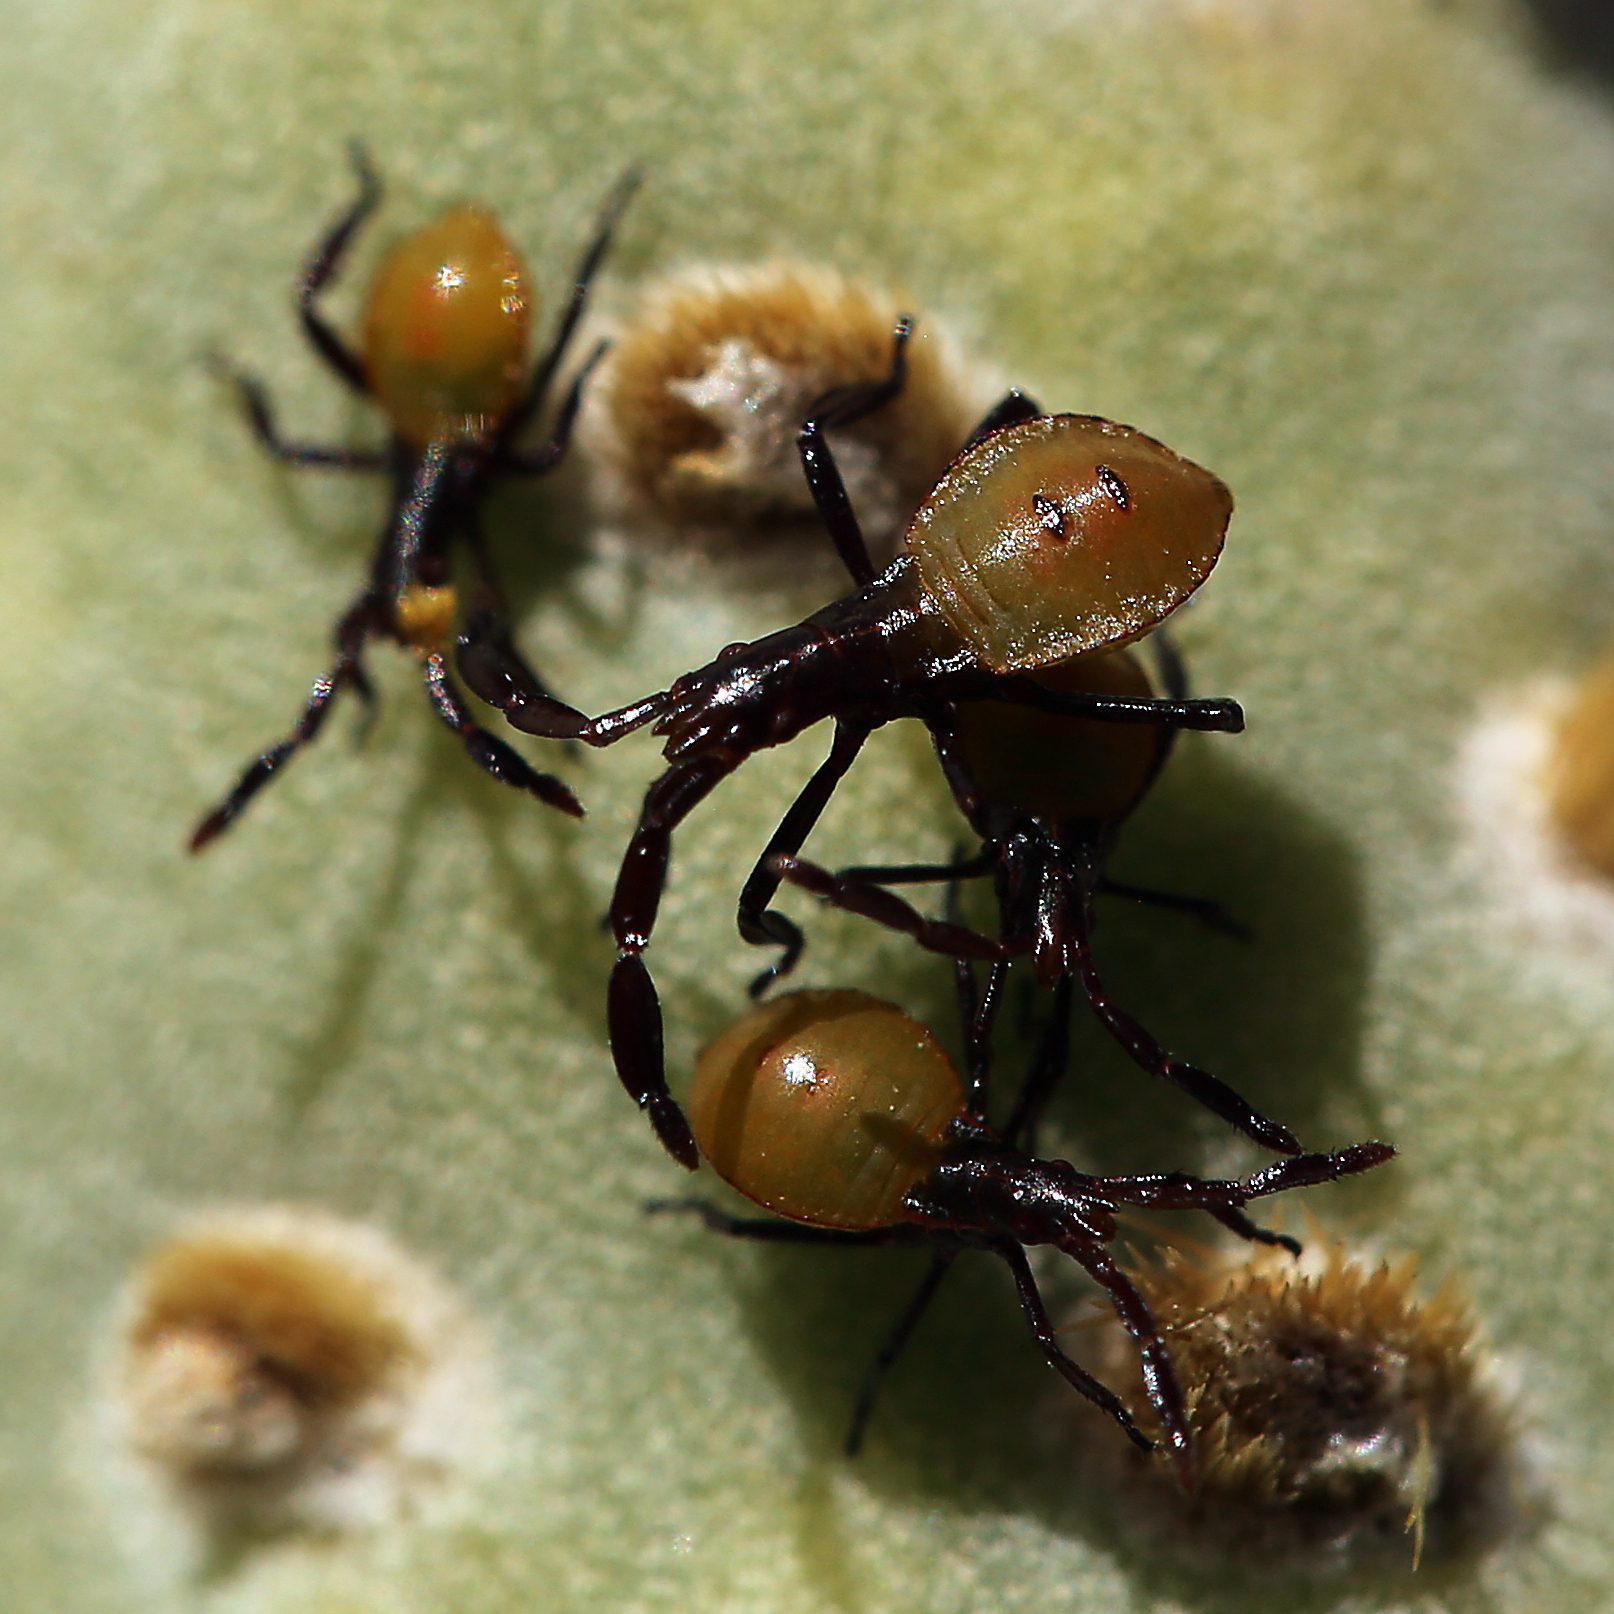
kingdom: Animalia
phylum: Arthropoda
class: Insecta
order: Hemiptera
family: Coreidae
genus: Chelinidea
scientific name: Chelinidea vittiger
